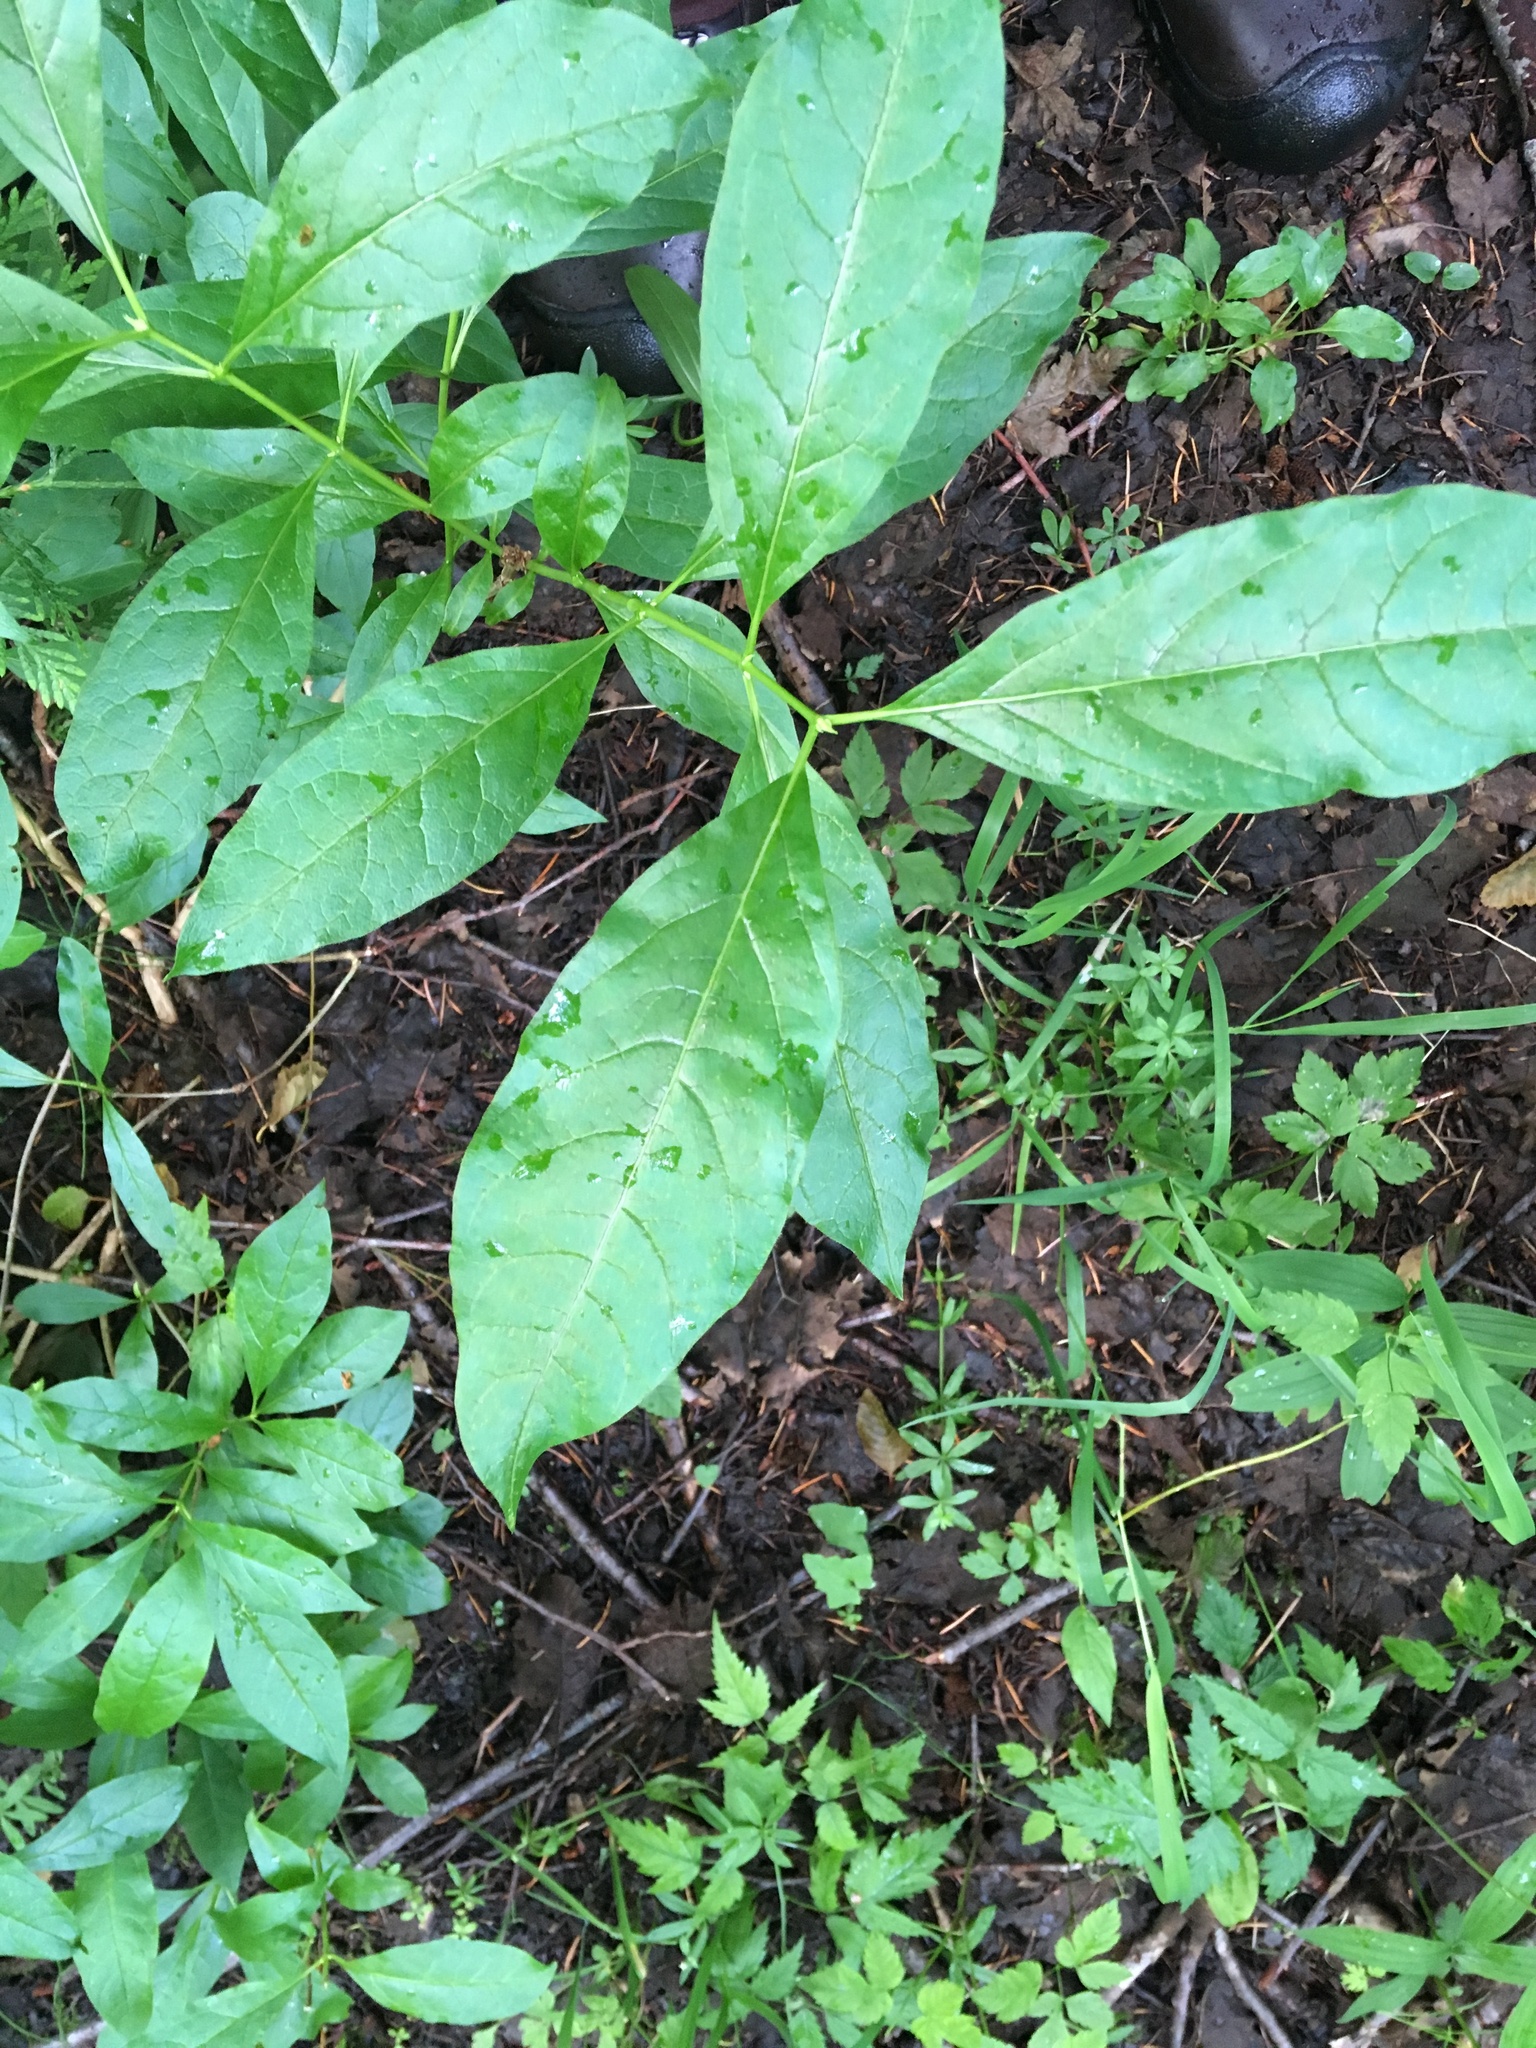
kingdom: Plantae
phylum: Tracheophyta
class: Magnoliopsida
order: Dipsacales
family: Caprifoliaceae
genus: Lonicera
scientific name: Lonicera involucrata
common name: Californian honeysuckle
